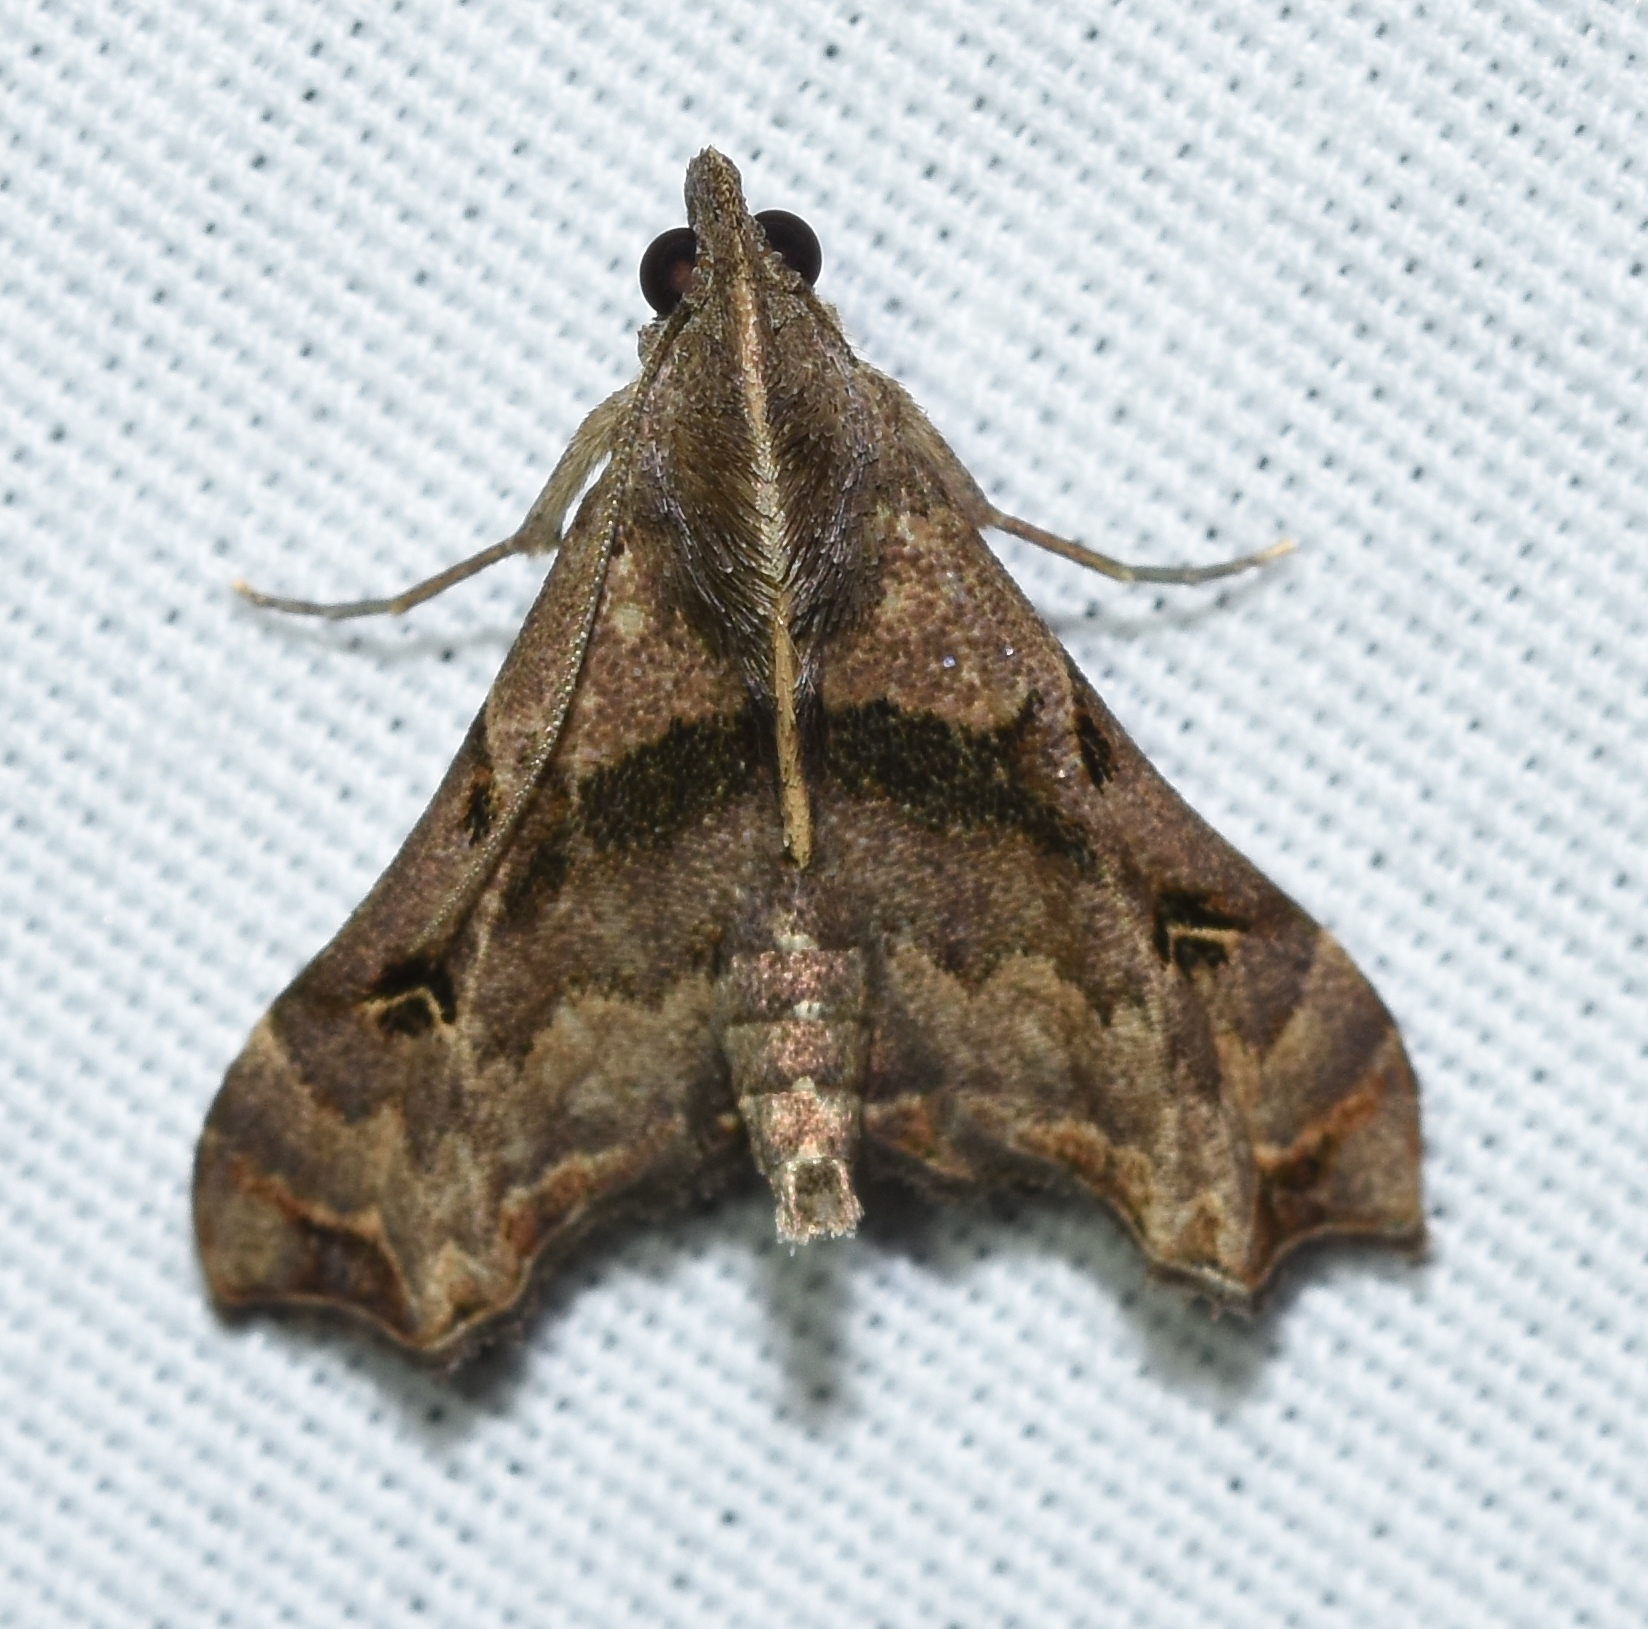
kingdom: Animalia
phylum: Arthropoda
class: Insecta
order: Lepidoptera
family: Erebidae
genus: Palthis
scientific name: Palthis asopialis
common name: Faint-spotted palthis moth
